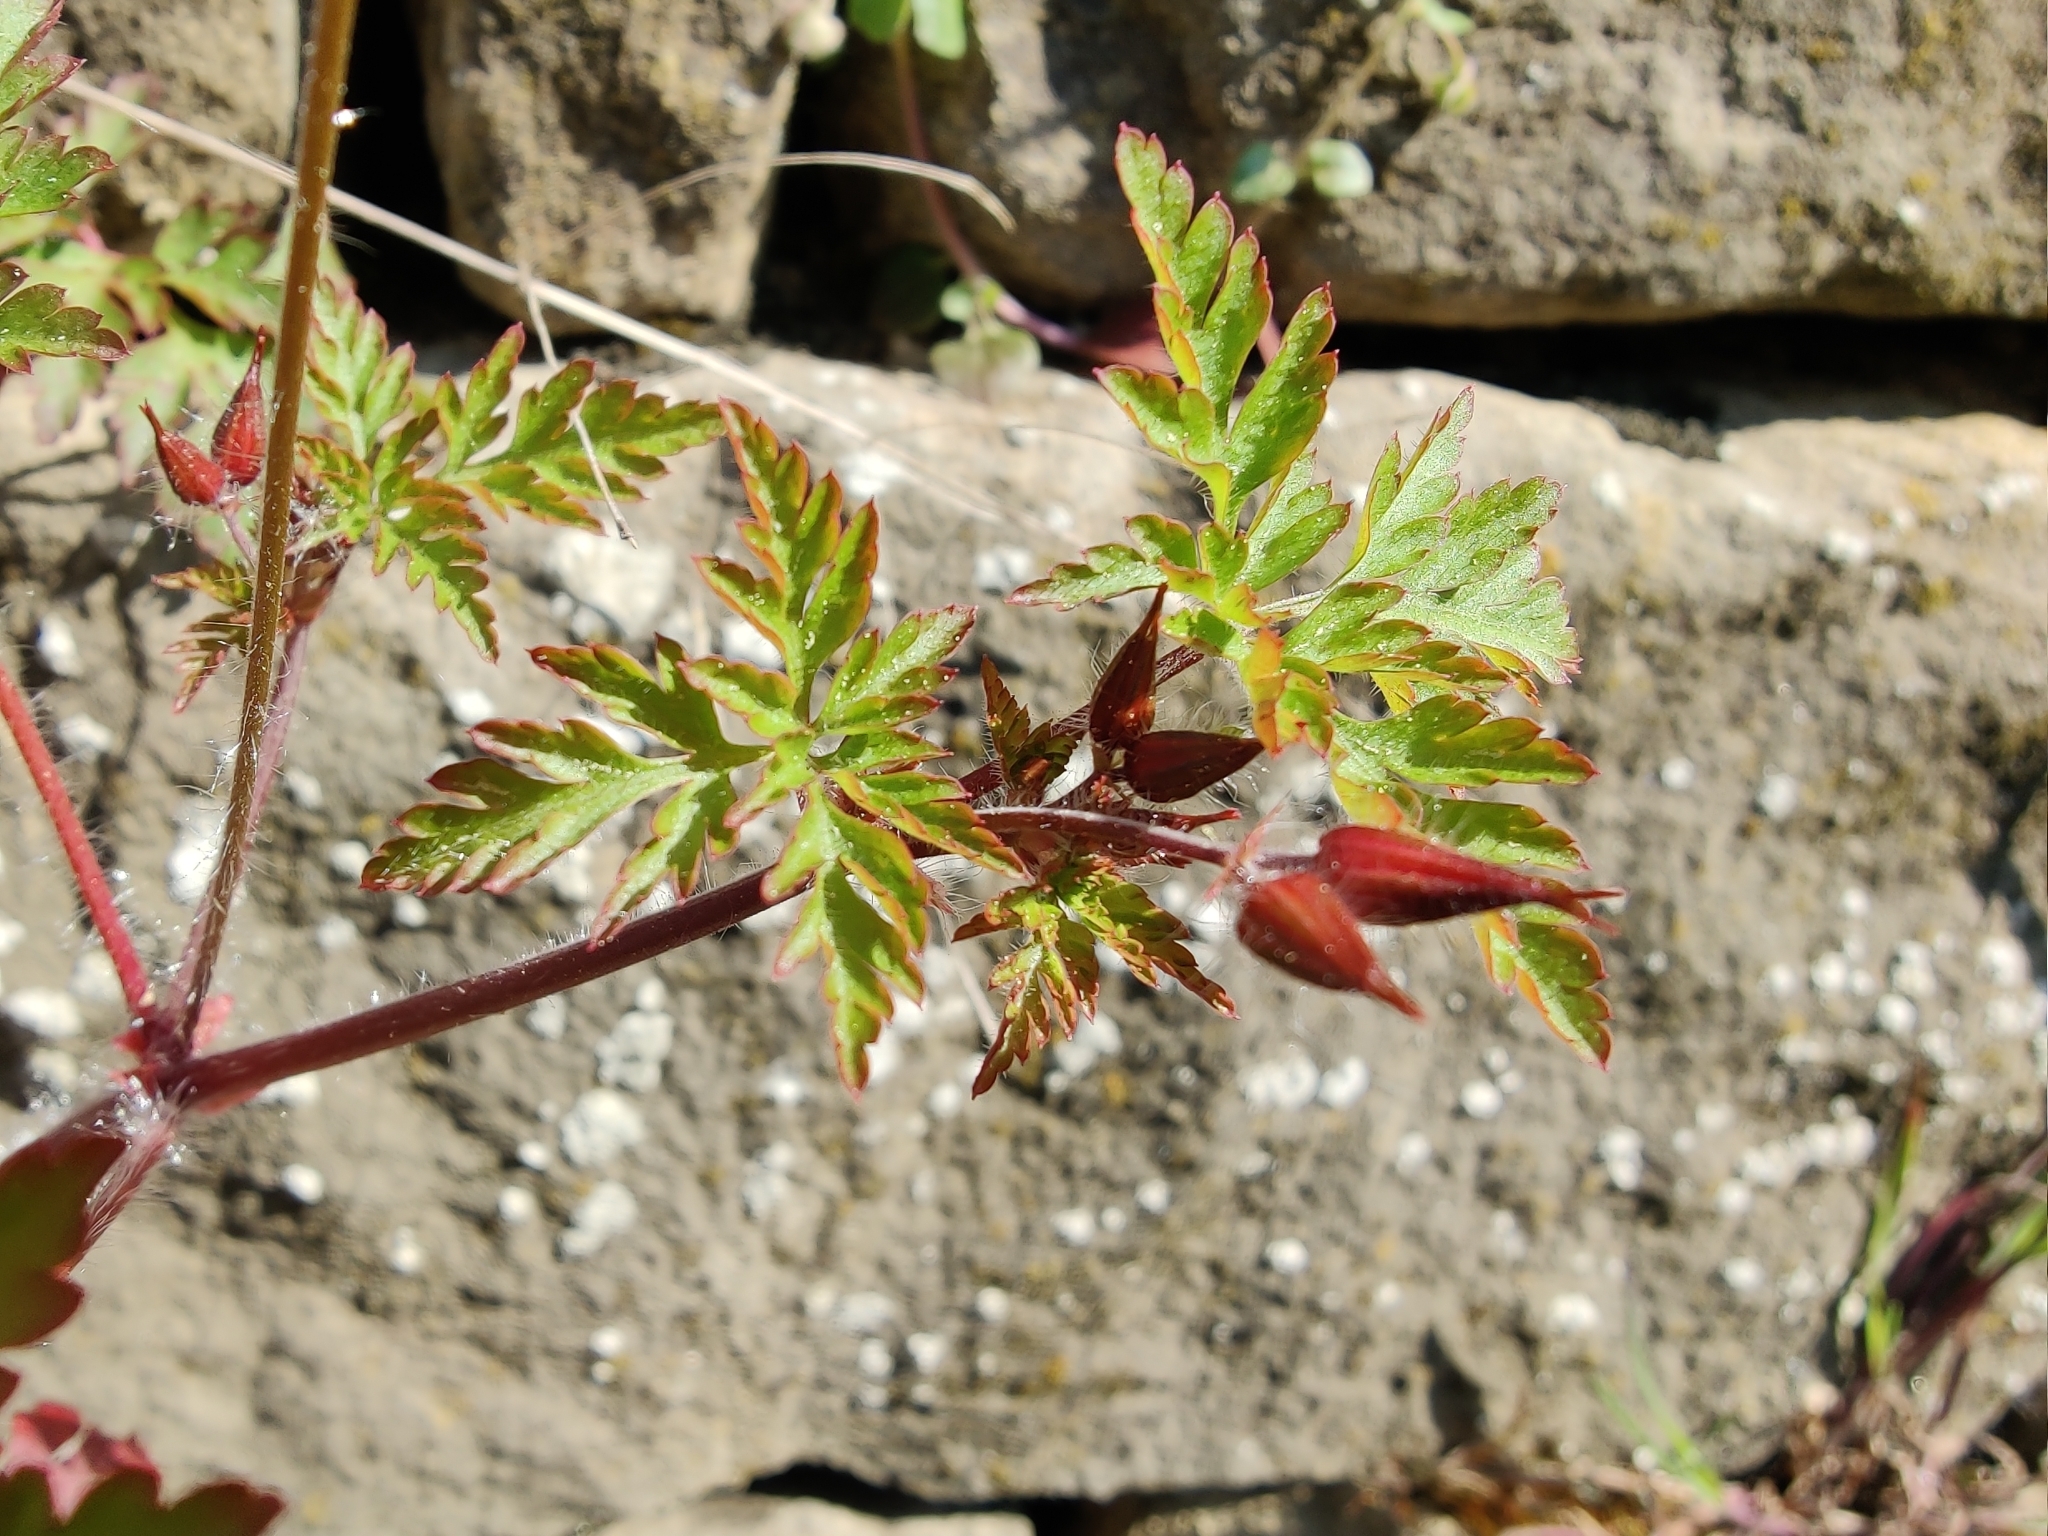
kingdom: Plantae
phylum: Tracheophyta
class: Magnoliopsida
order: Geraniales
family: Geraniaceae
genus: Geranium
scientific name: Geranium robertianum
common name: Herb-robert
